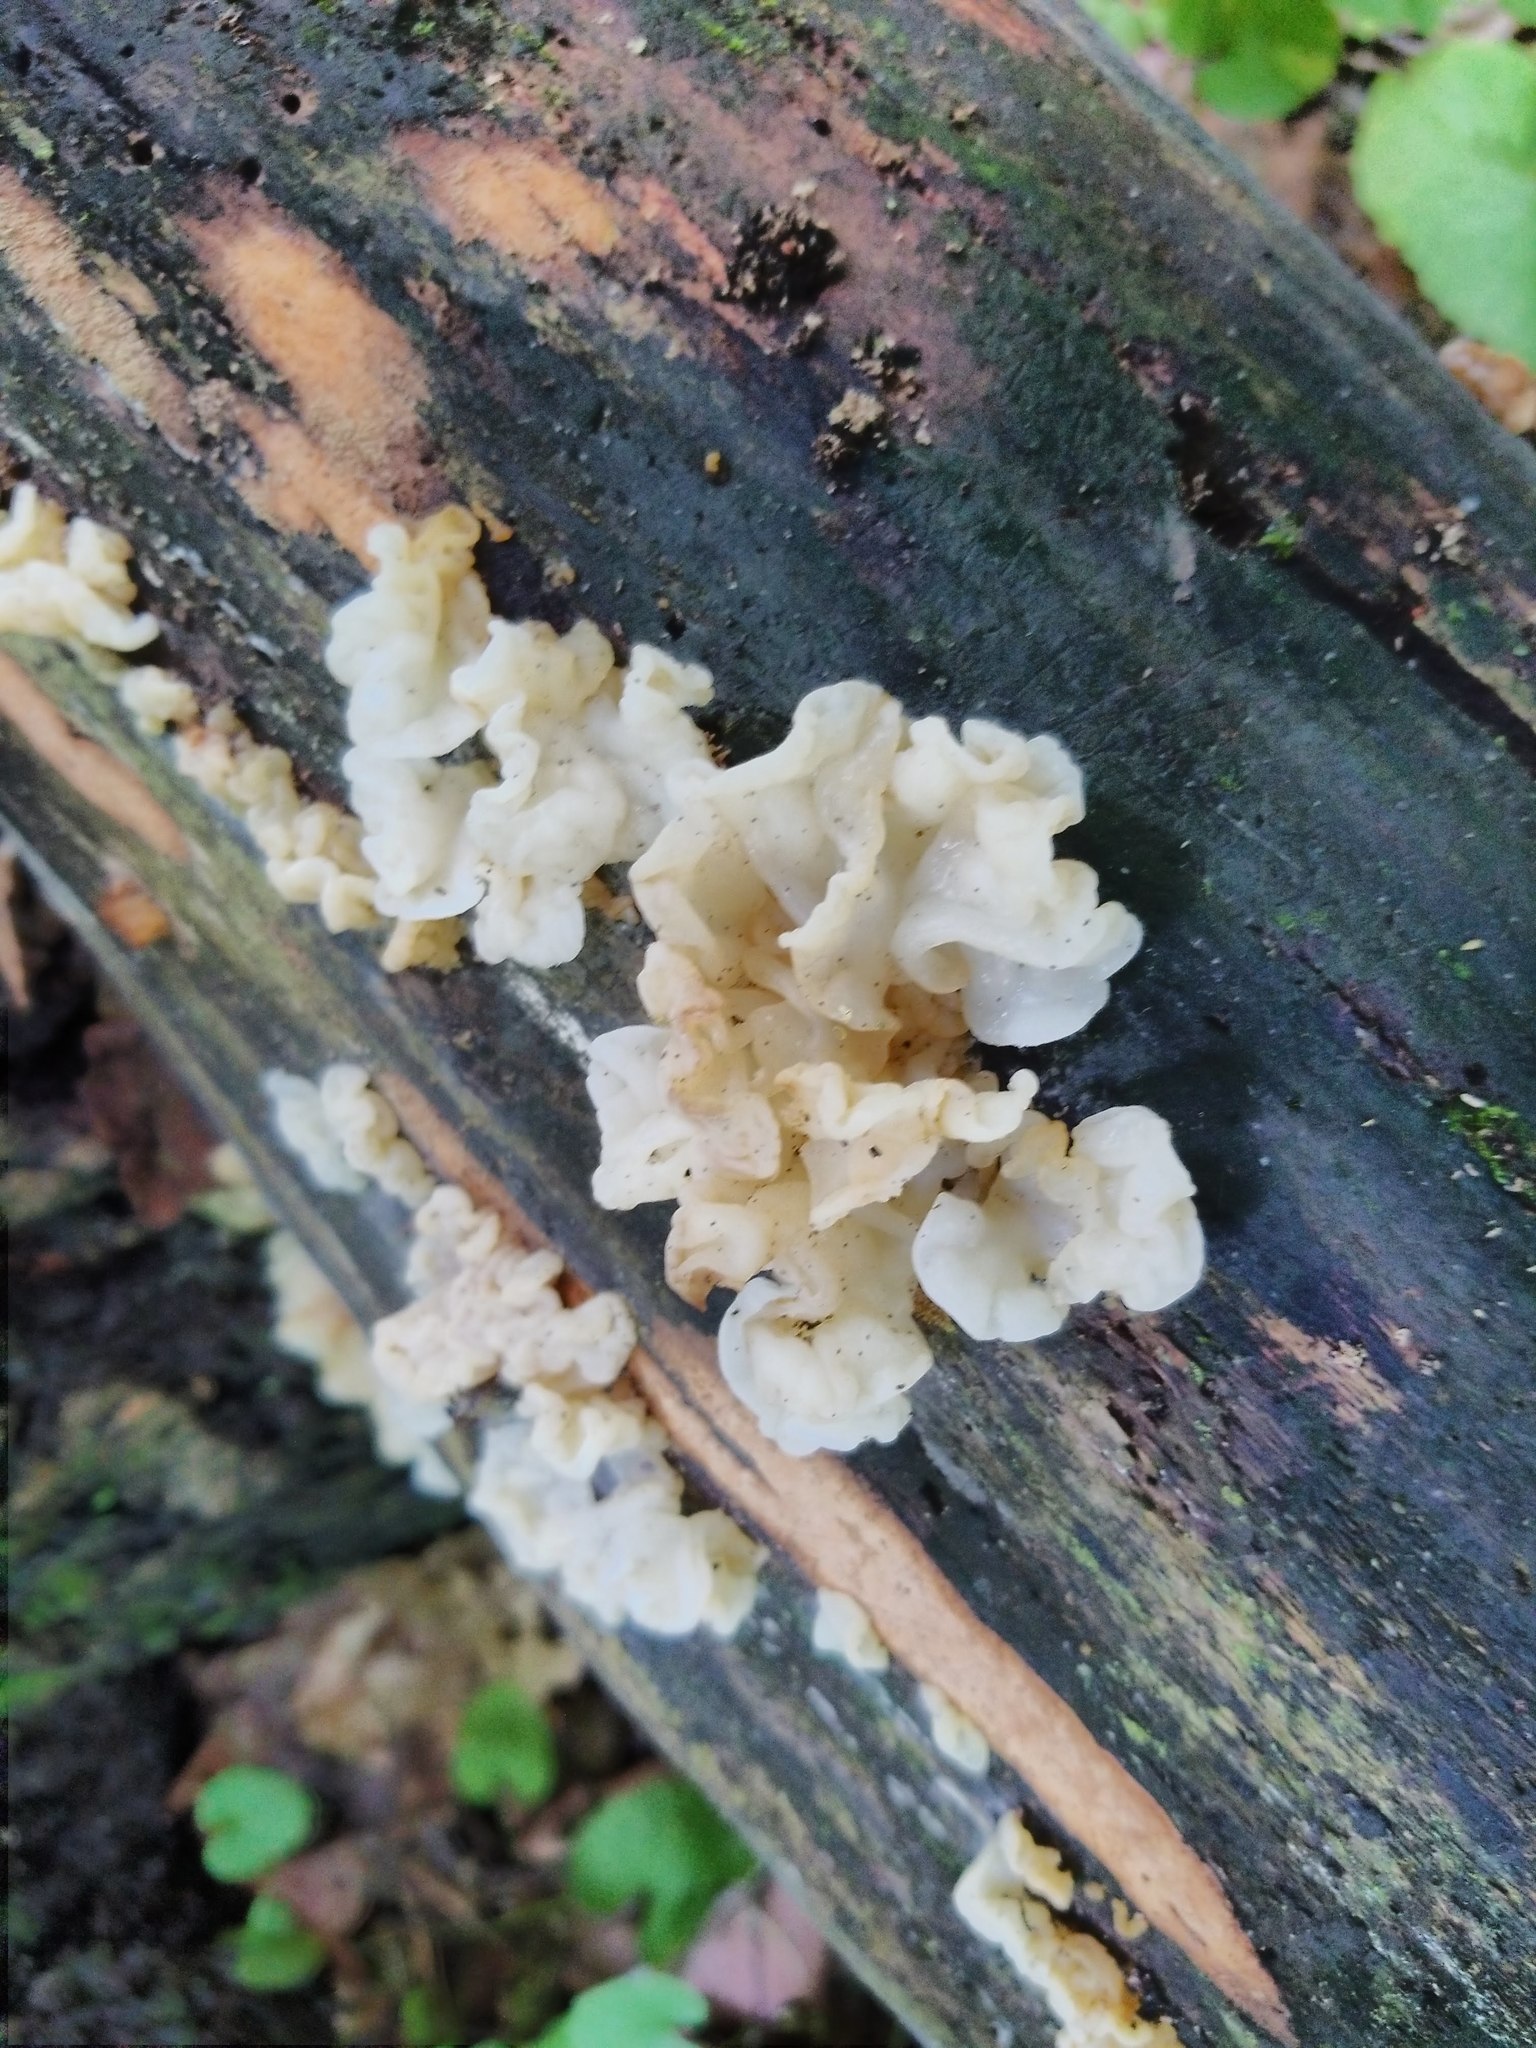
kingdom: Fungi
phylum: Basidiomycota
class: Agaricomycetes
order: Auriculariales
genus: Ductifera
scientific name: Ductifera pululahuana
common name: White jelly fungus
